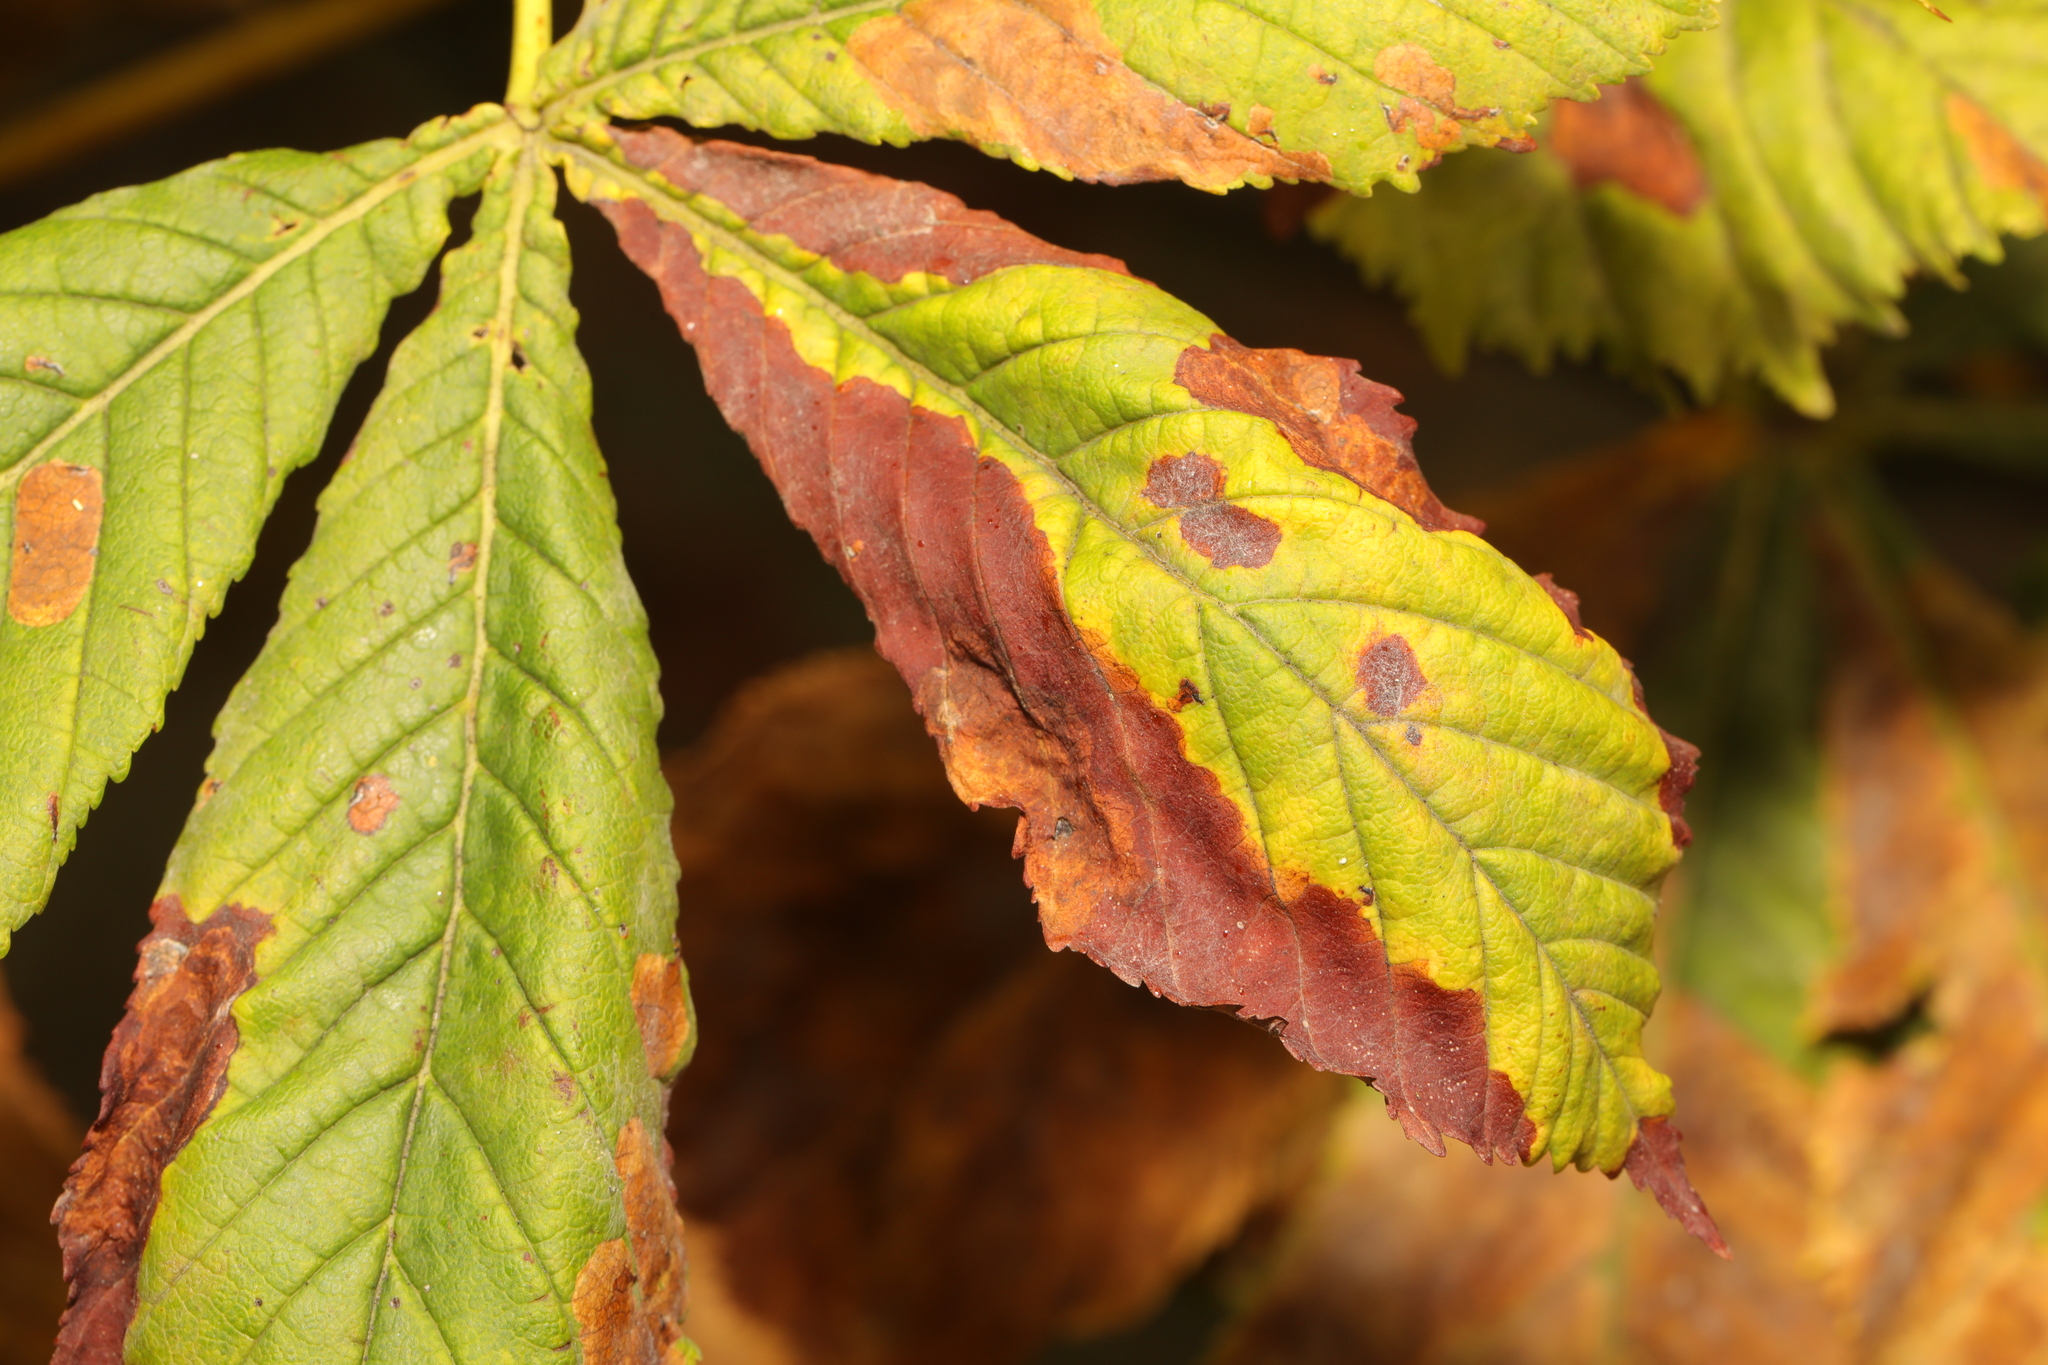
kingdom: Fungi
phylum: Ascomycota
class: Dothideomycetes
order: Botryosphaeriales
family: Phyllostictaceae
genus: Phyllosticta
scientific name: Phyllosticta paviae
